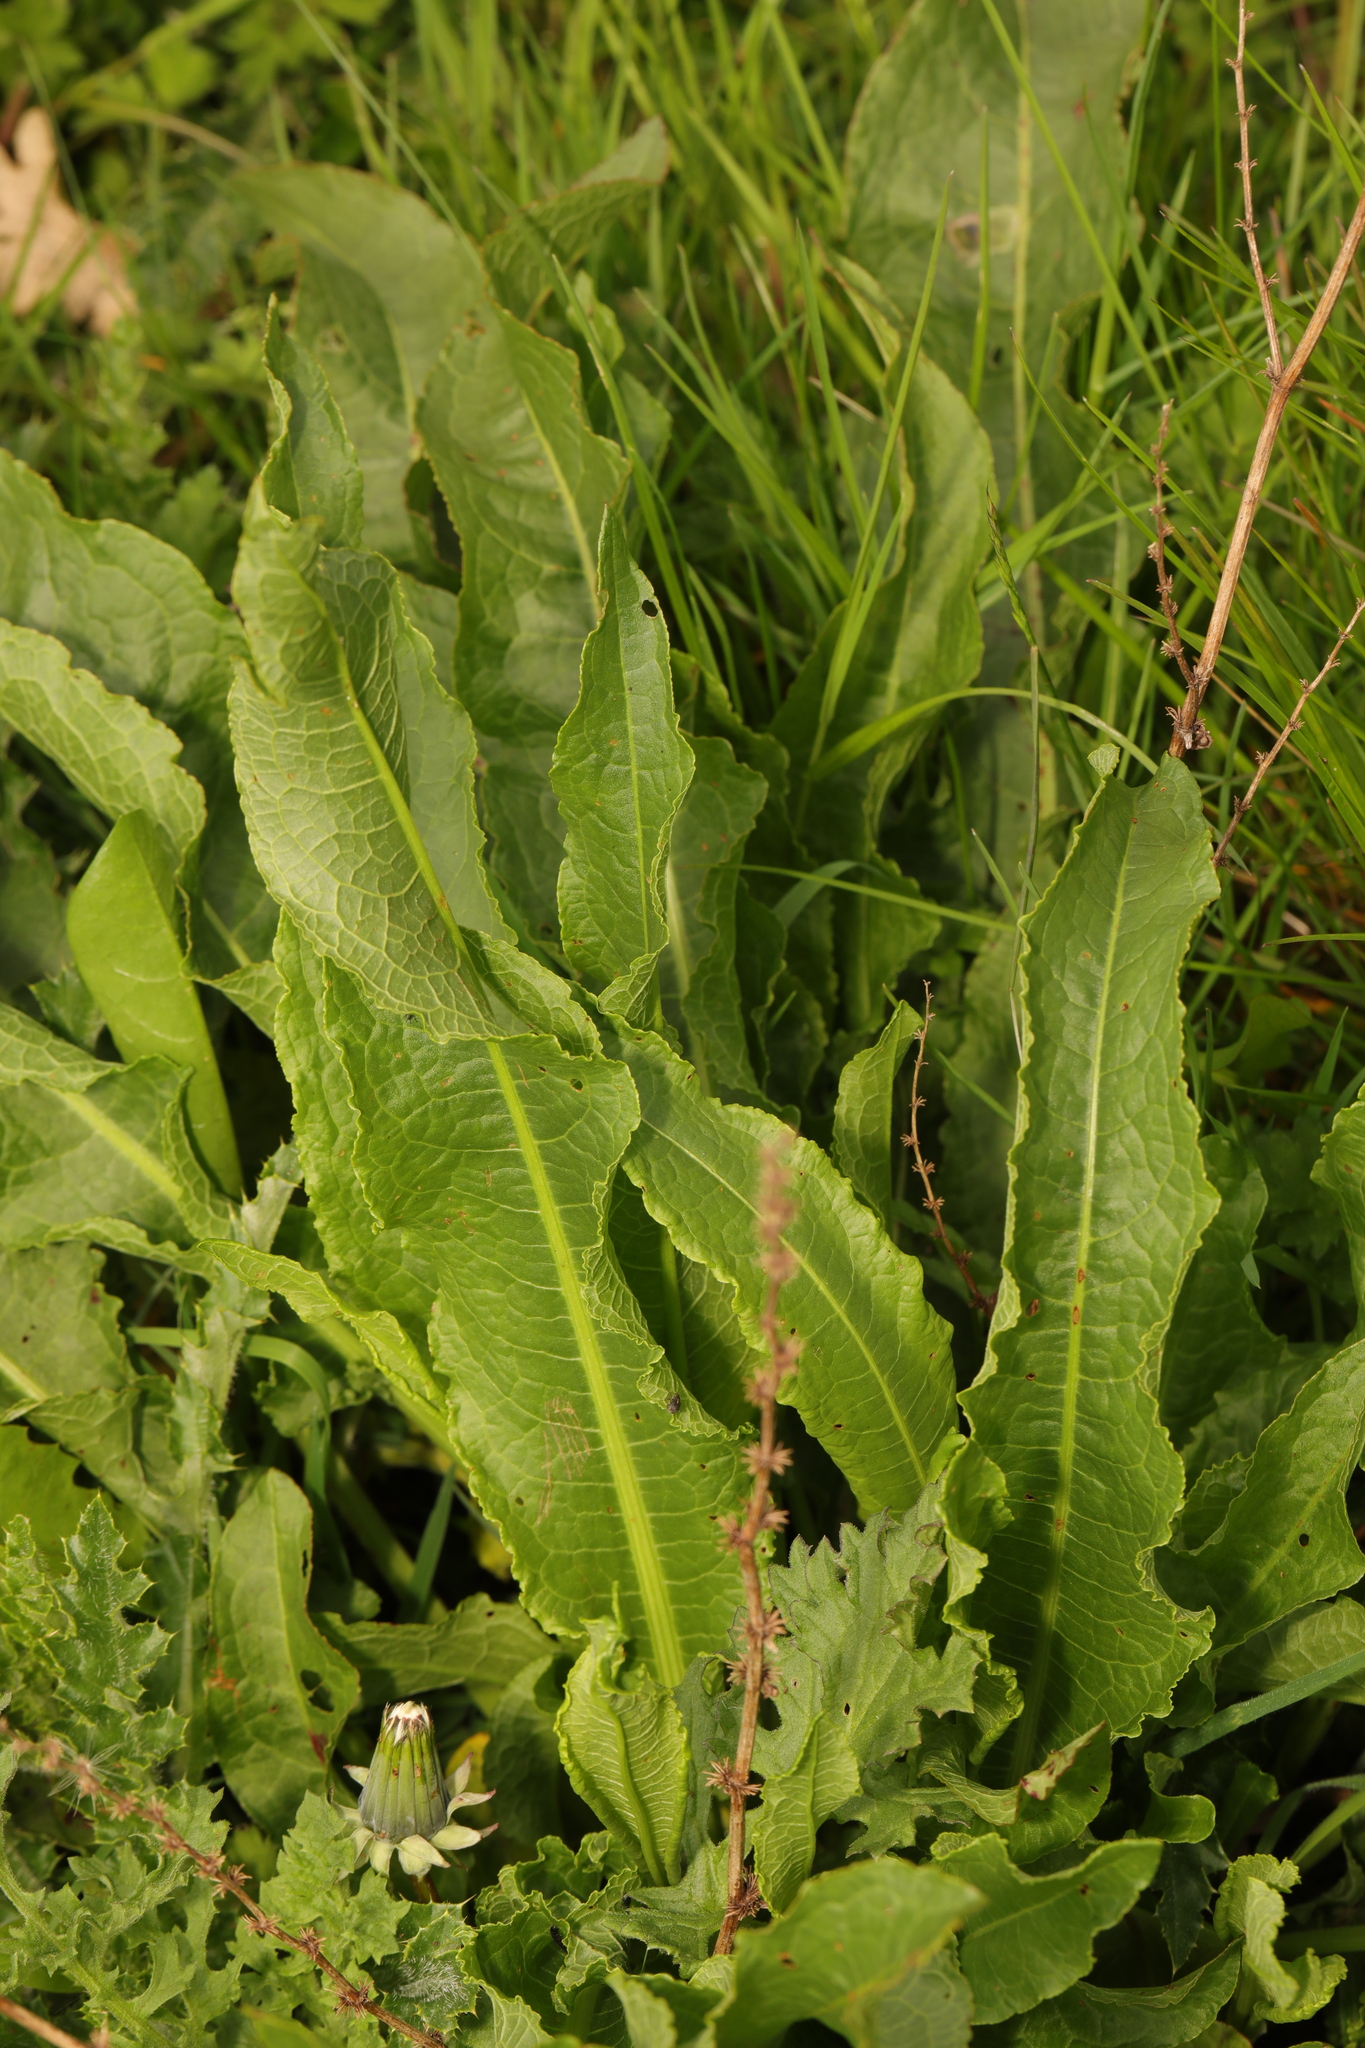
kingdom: Plantae
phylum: Tracheophyta
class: Magnoliopsida
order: Caryophyllales
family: Polygonaceae
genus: Rumex
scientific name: Rumex crispus
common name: Curled dock
